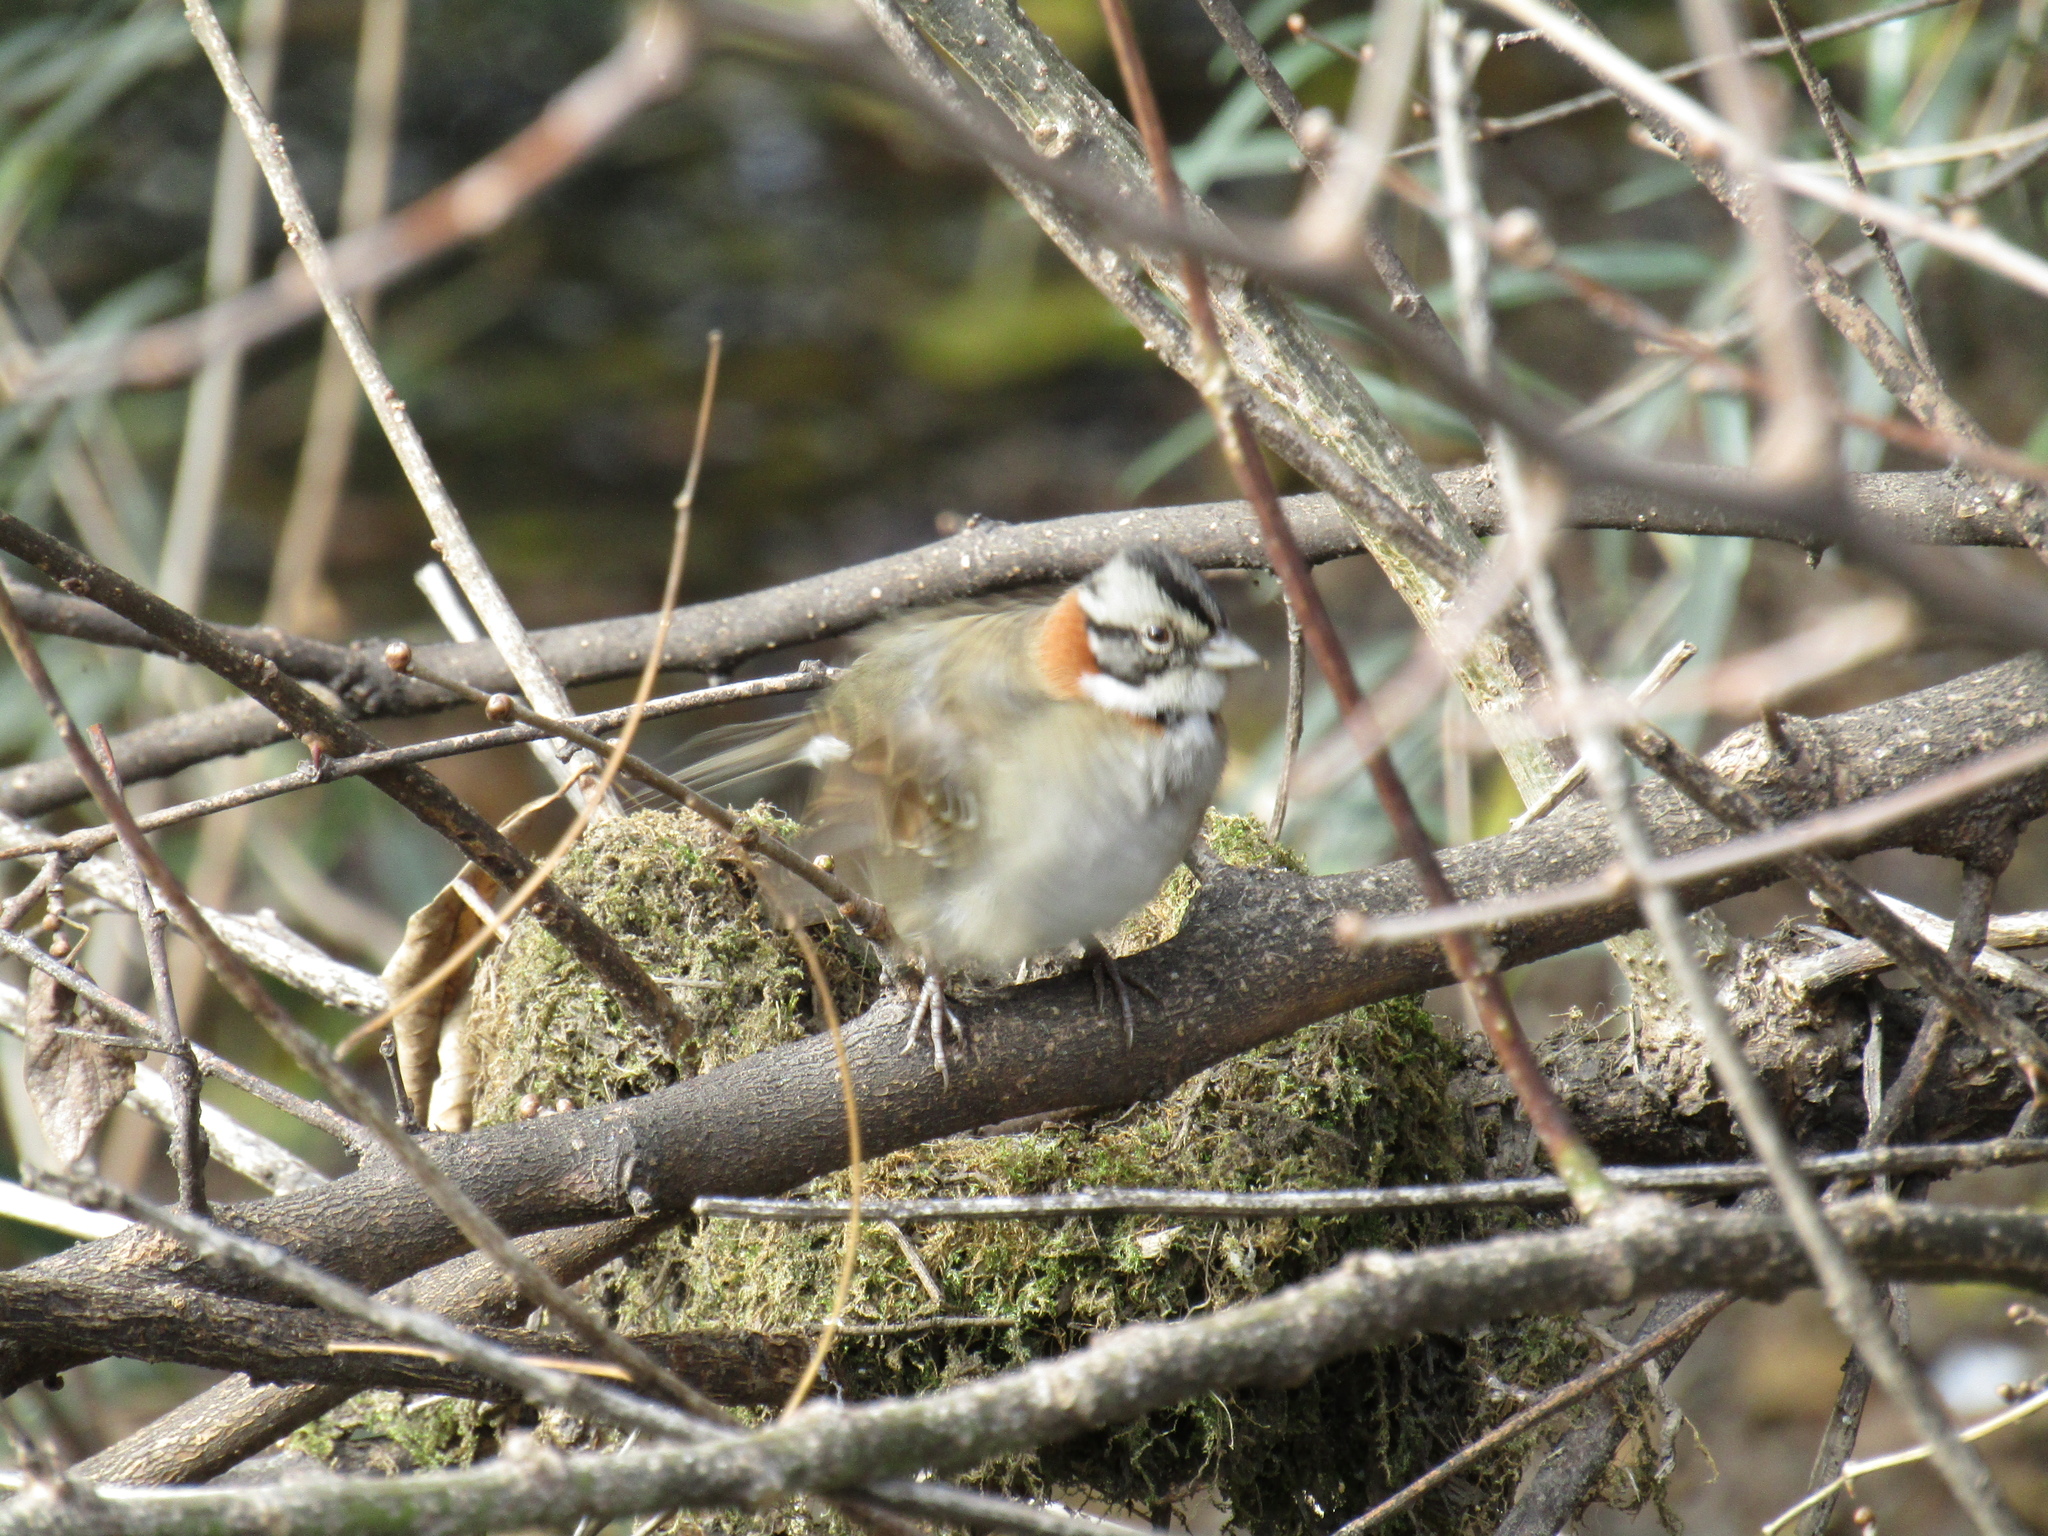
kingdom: Animalia
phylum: Chordata
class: Aves
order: Passeriformes
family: Passerellidae
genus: Zonotrichia
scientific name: Zonotrichia capensis
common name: Rufous-collared sparrow
